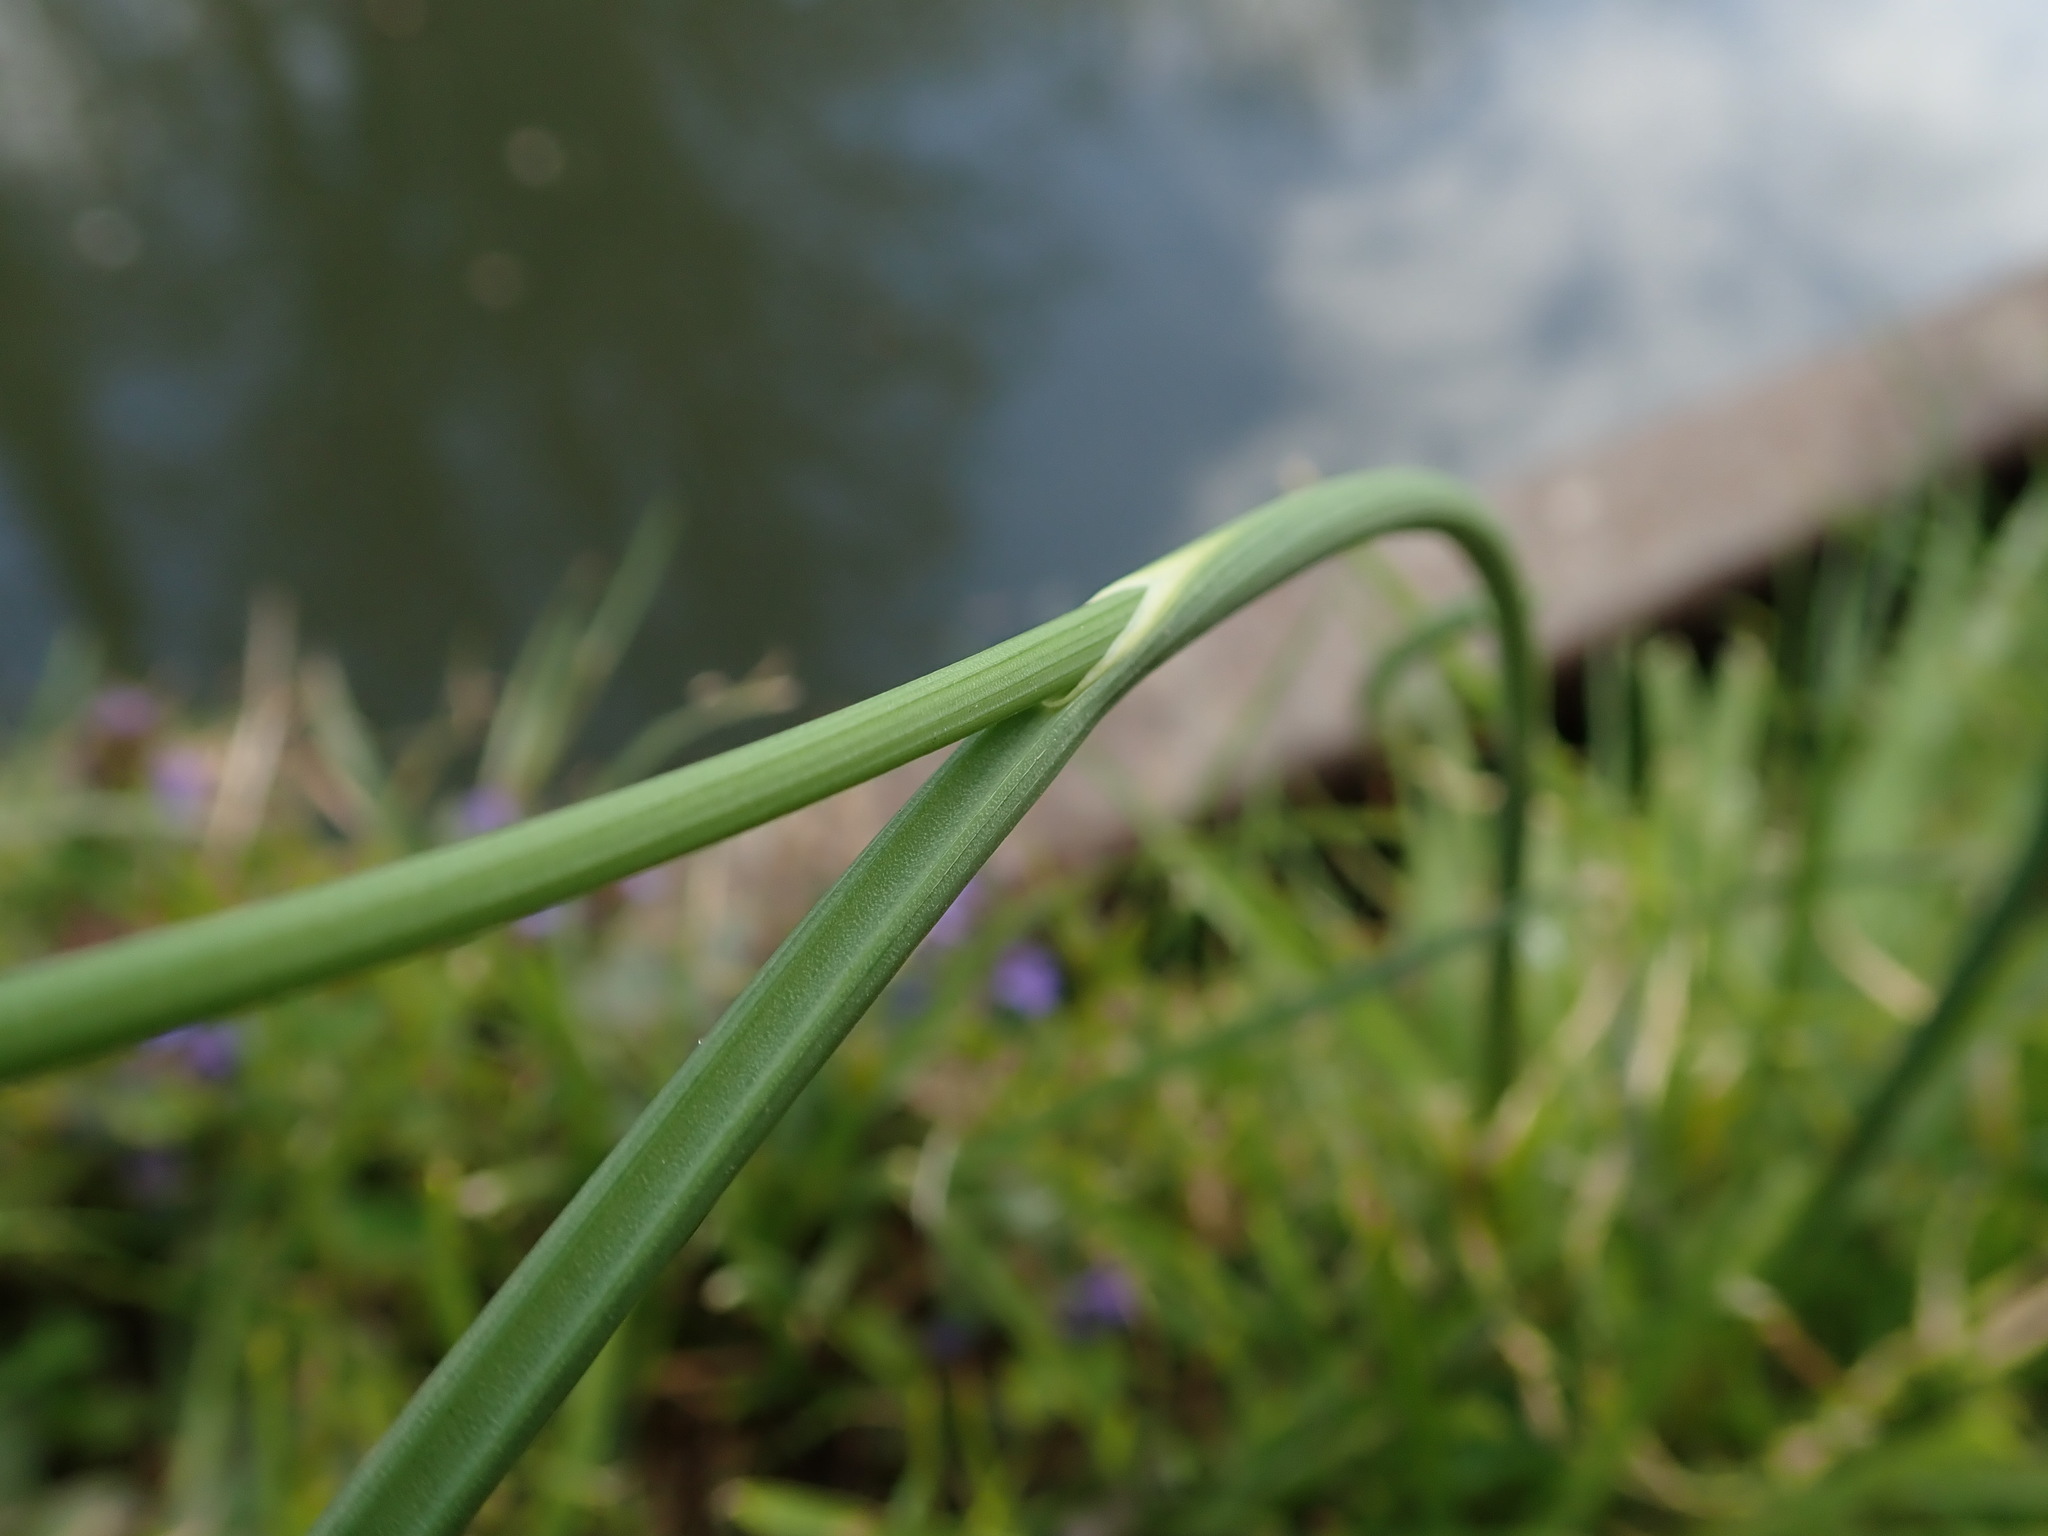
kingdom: Plantae
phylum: Tracheophyta
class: Liliopsida
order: Asparagales
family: Amaryllidaceae
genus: Allium
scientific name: Allium vineale
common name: Crow garlic
